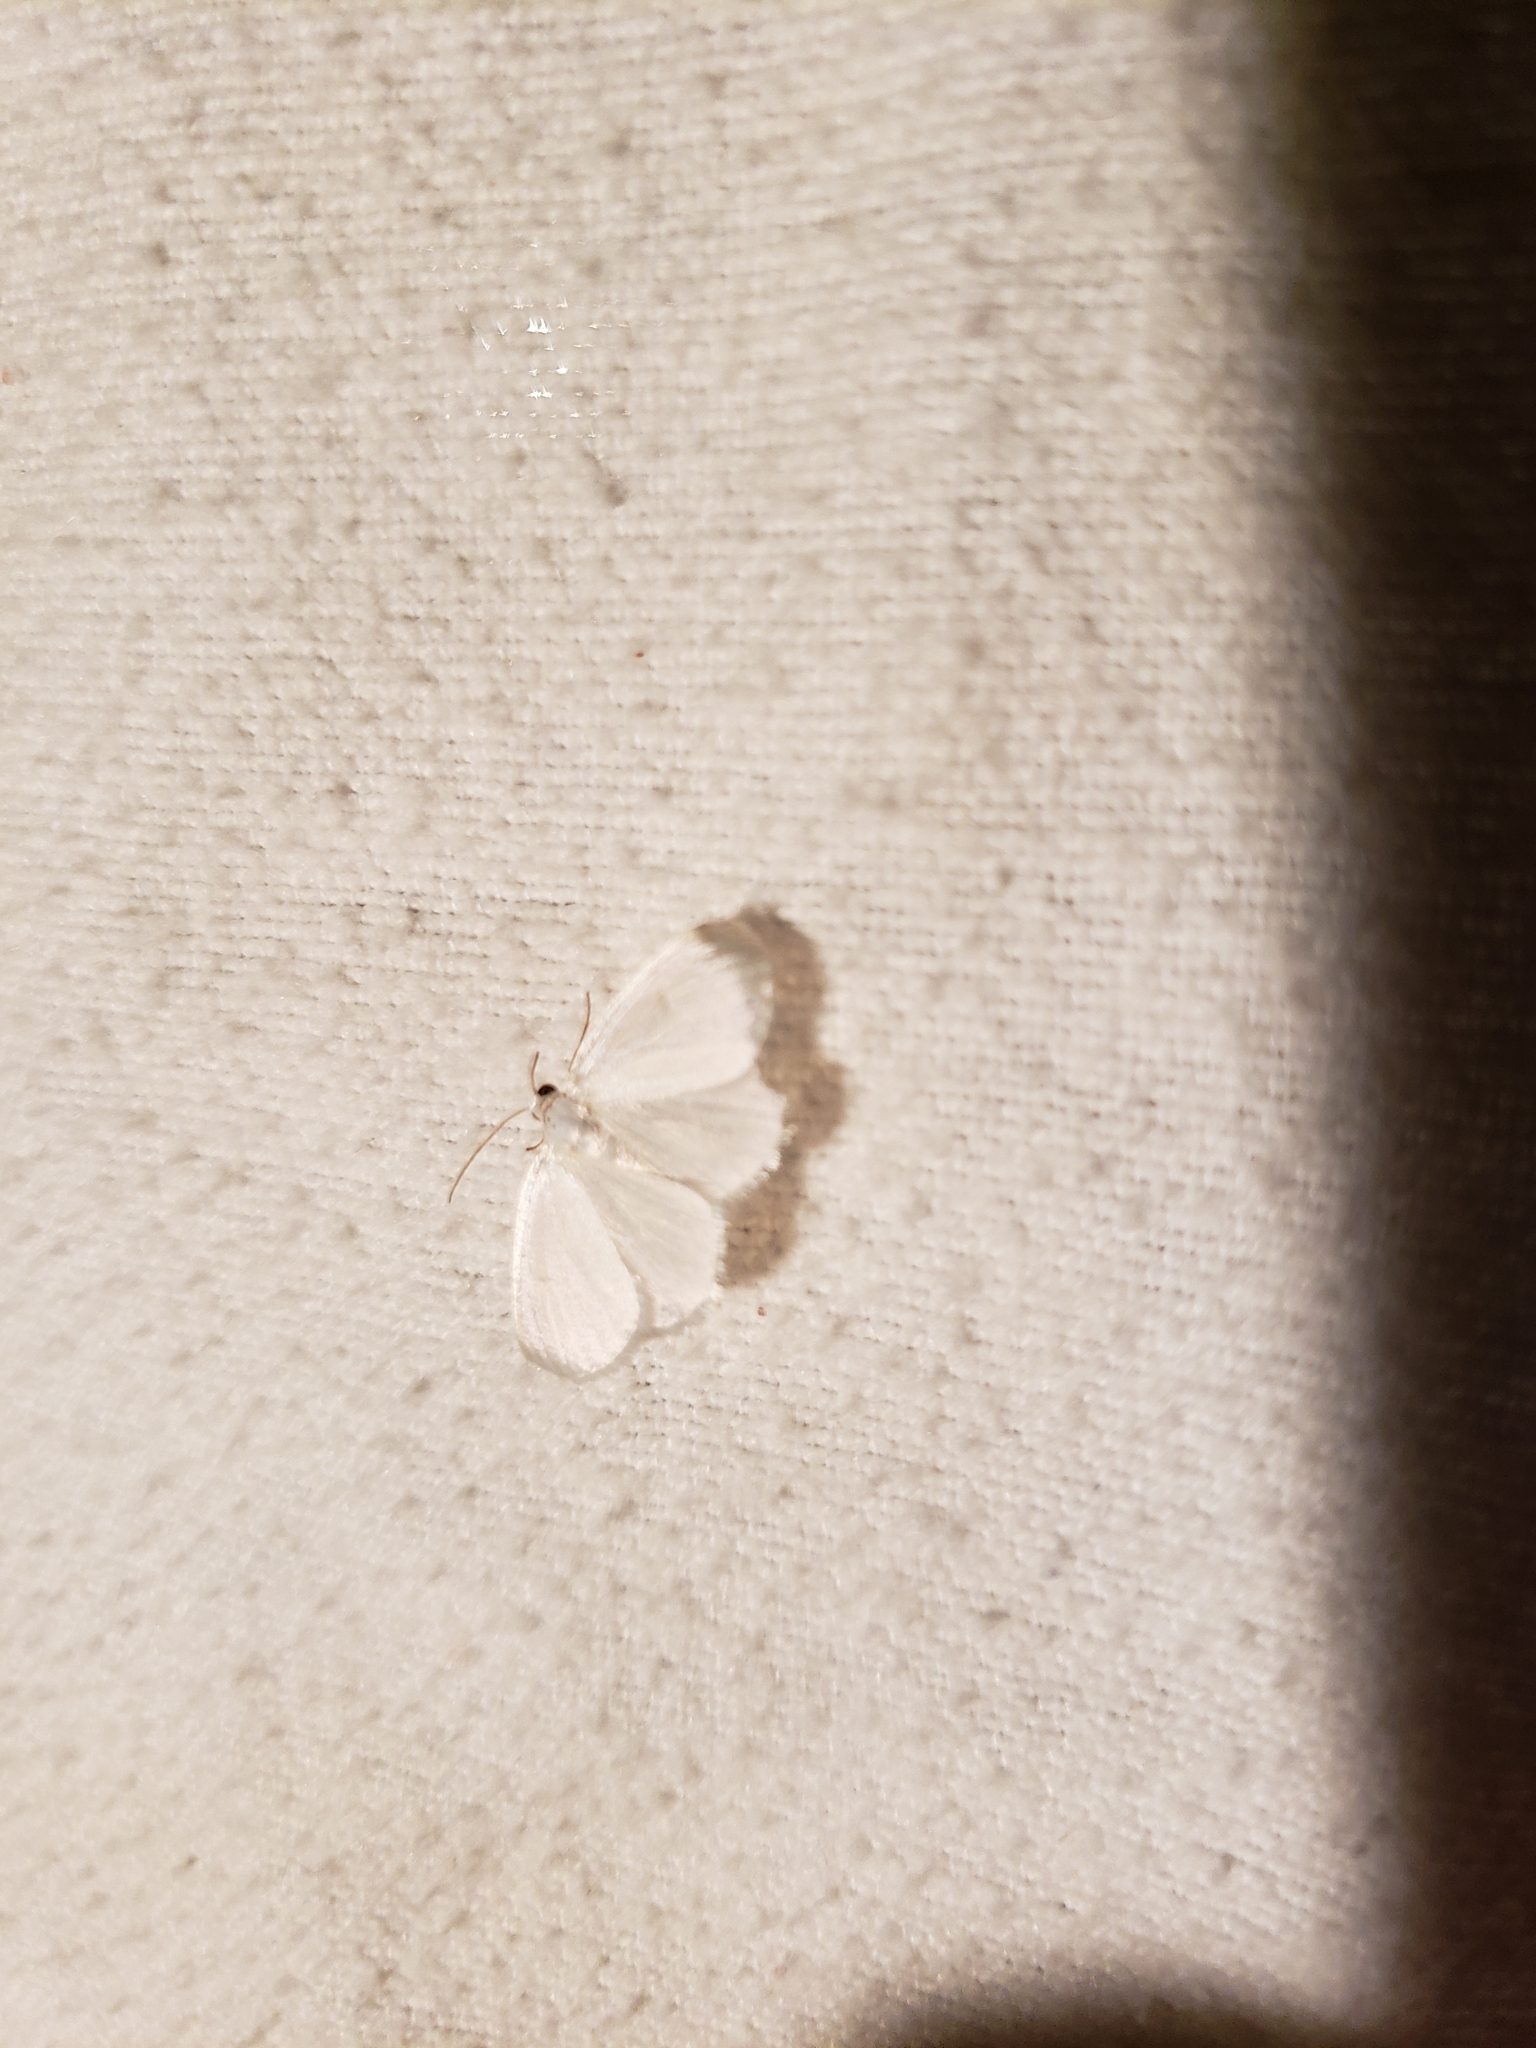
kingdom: Animalia
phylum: Arthropoda
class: Insecta
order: Lepidoptera
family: Geometridae
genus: Lomographa
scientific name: Lomographa vestaliata
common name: White spring moth
